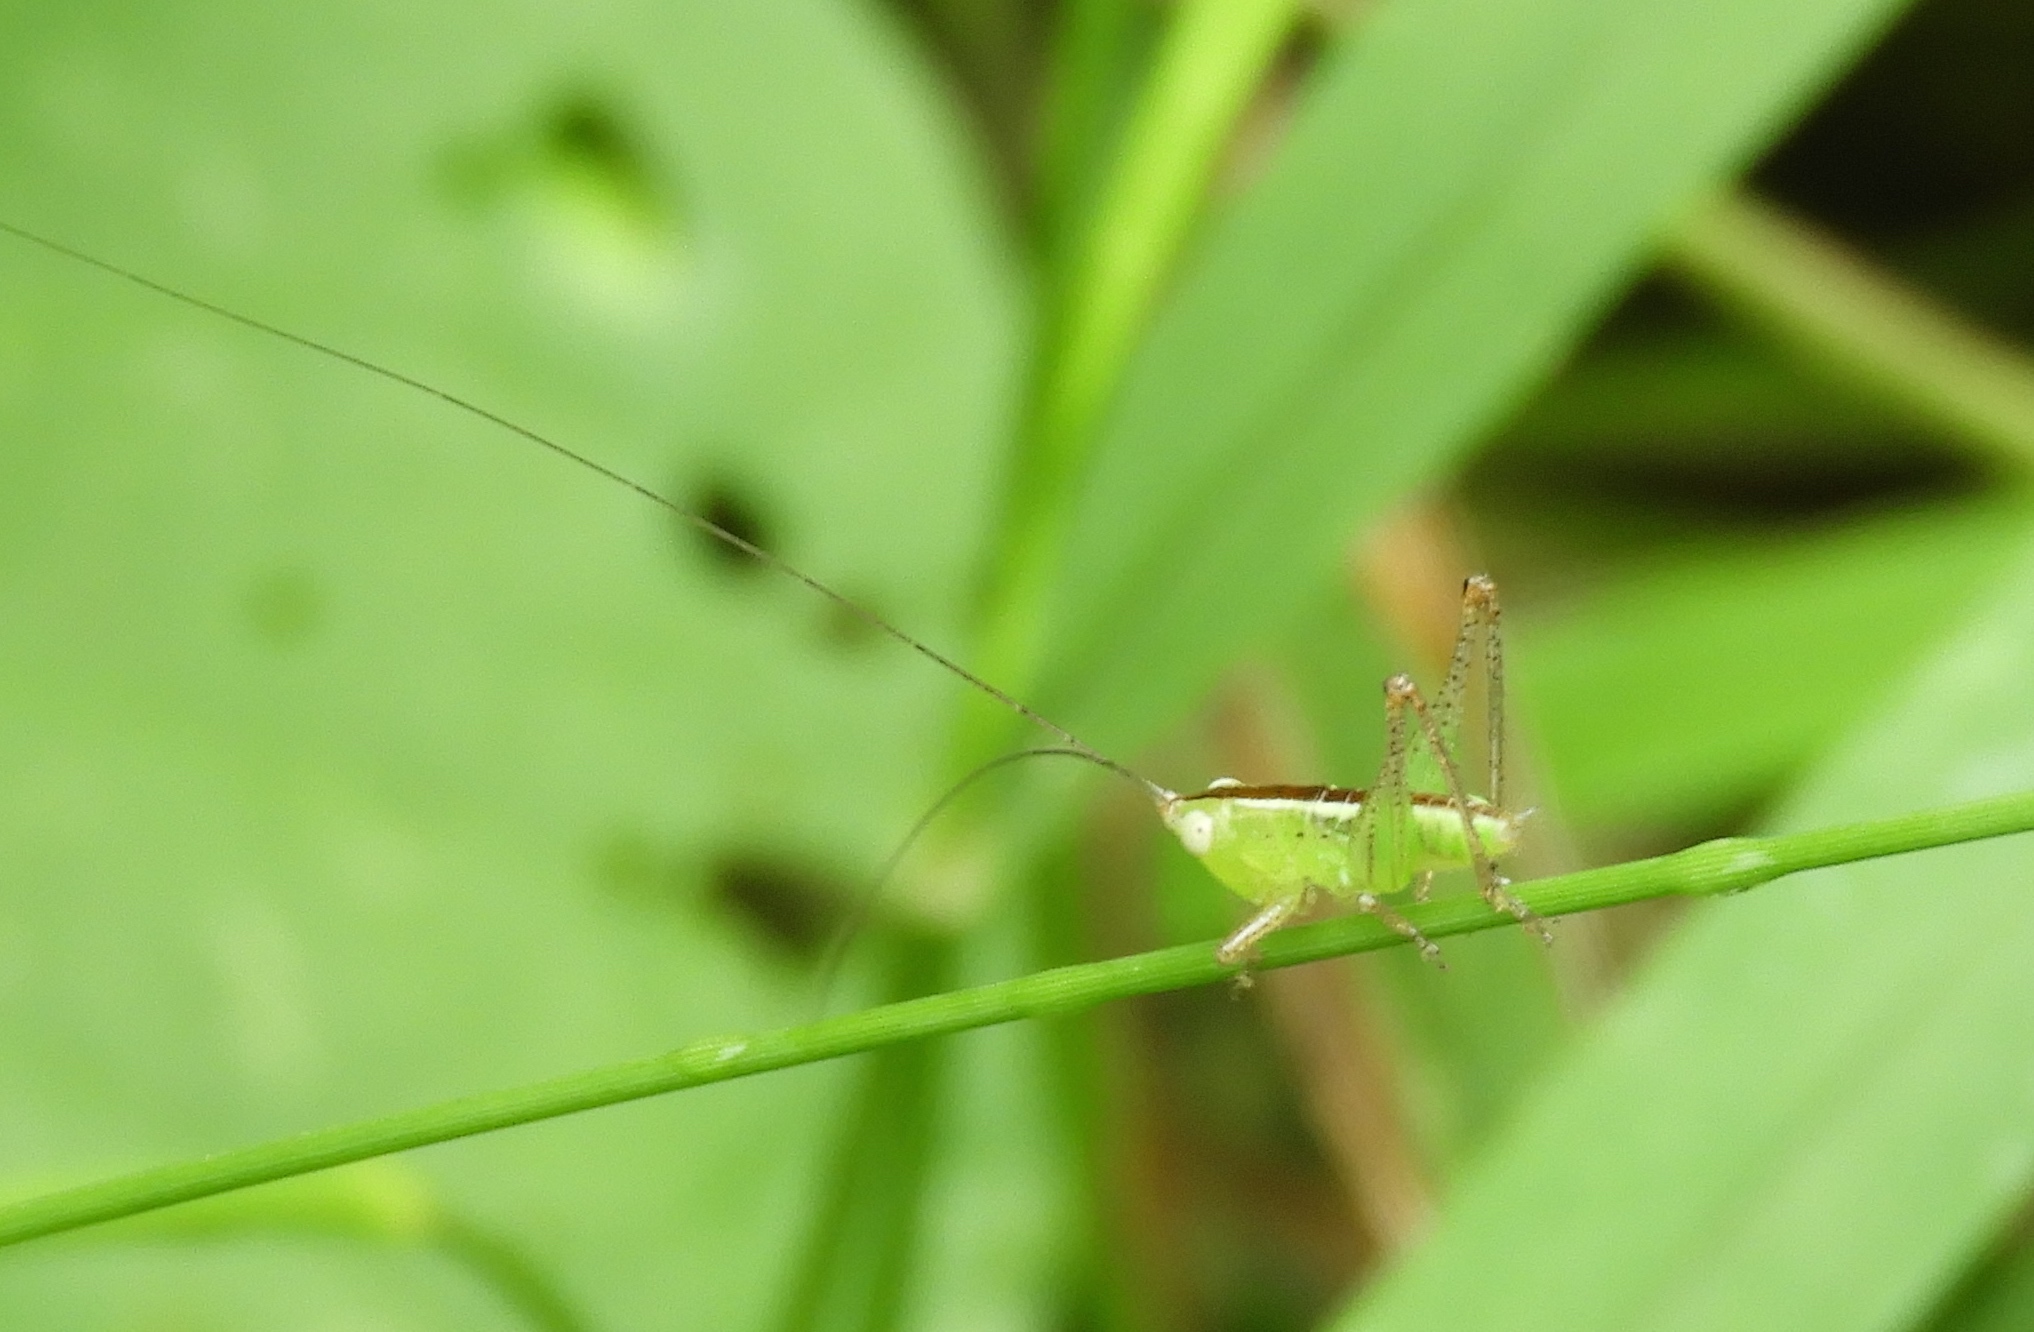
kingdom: Animalia
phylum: Arthropoda
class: Insecta
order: Orthoptera
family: Tettigoniidae
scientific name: Tettigoniidae
